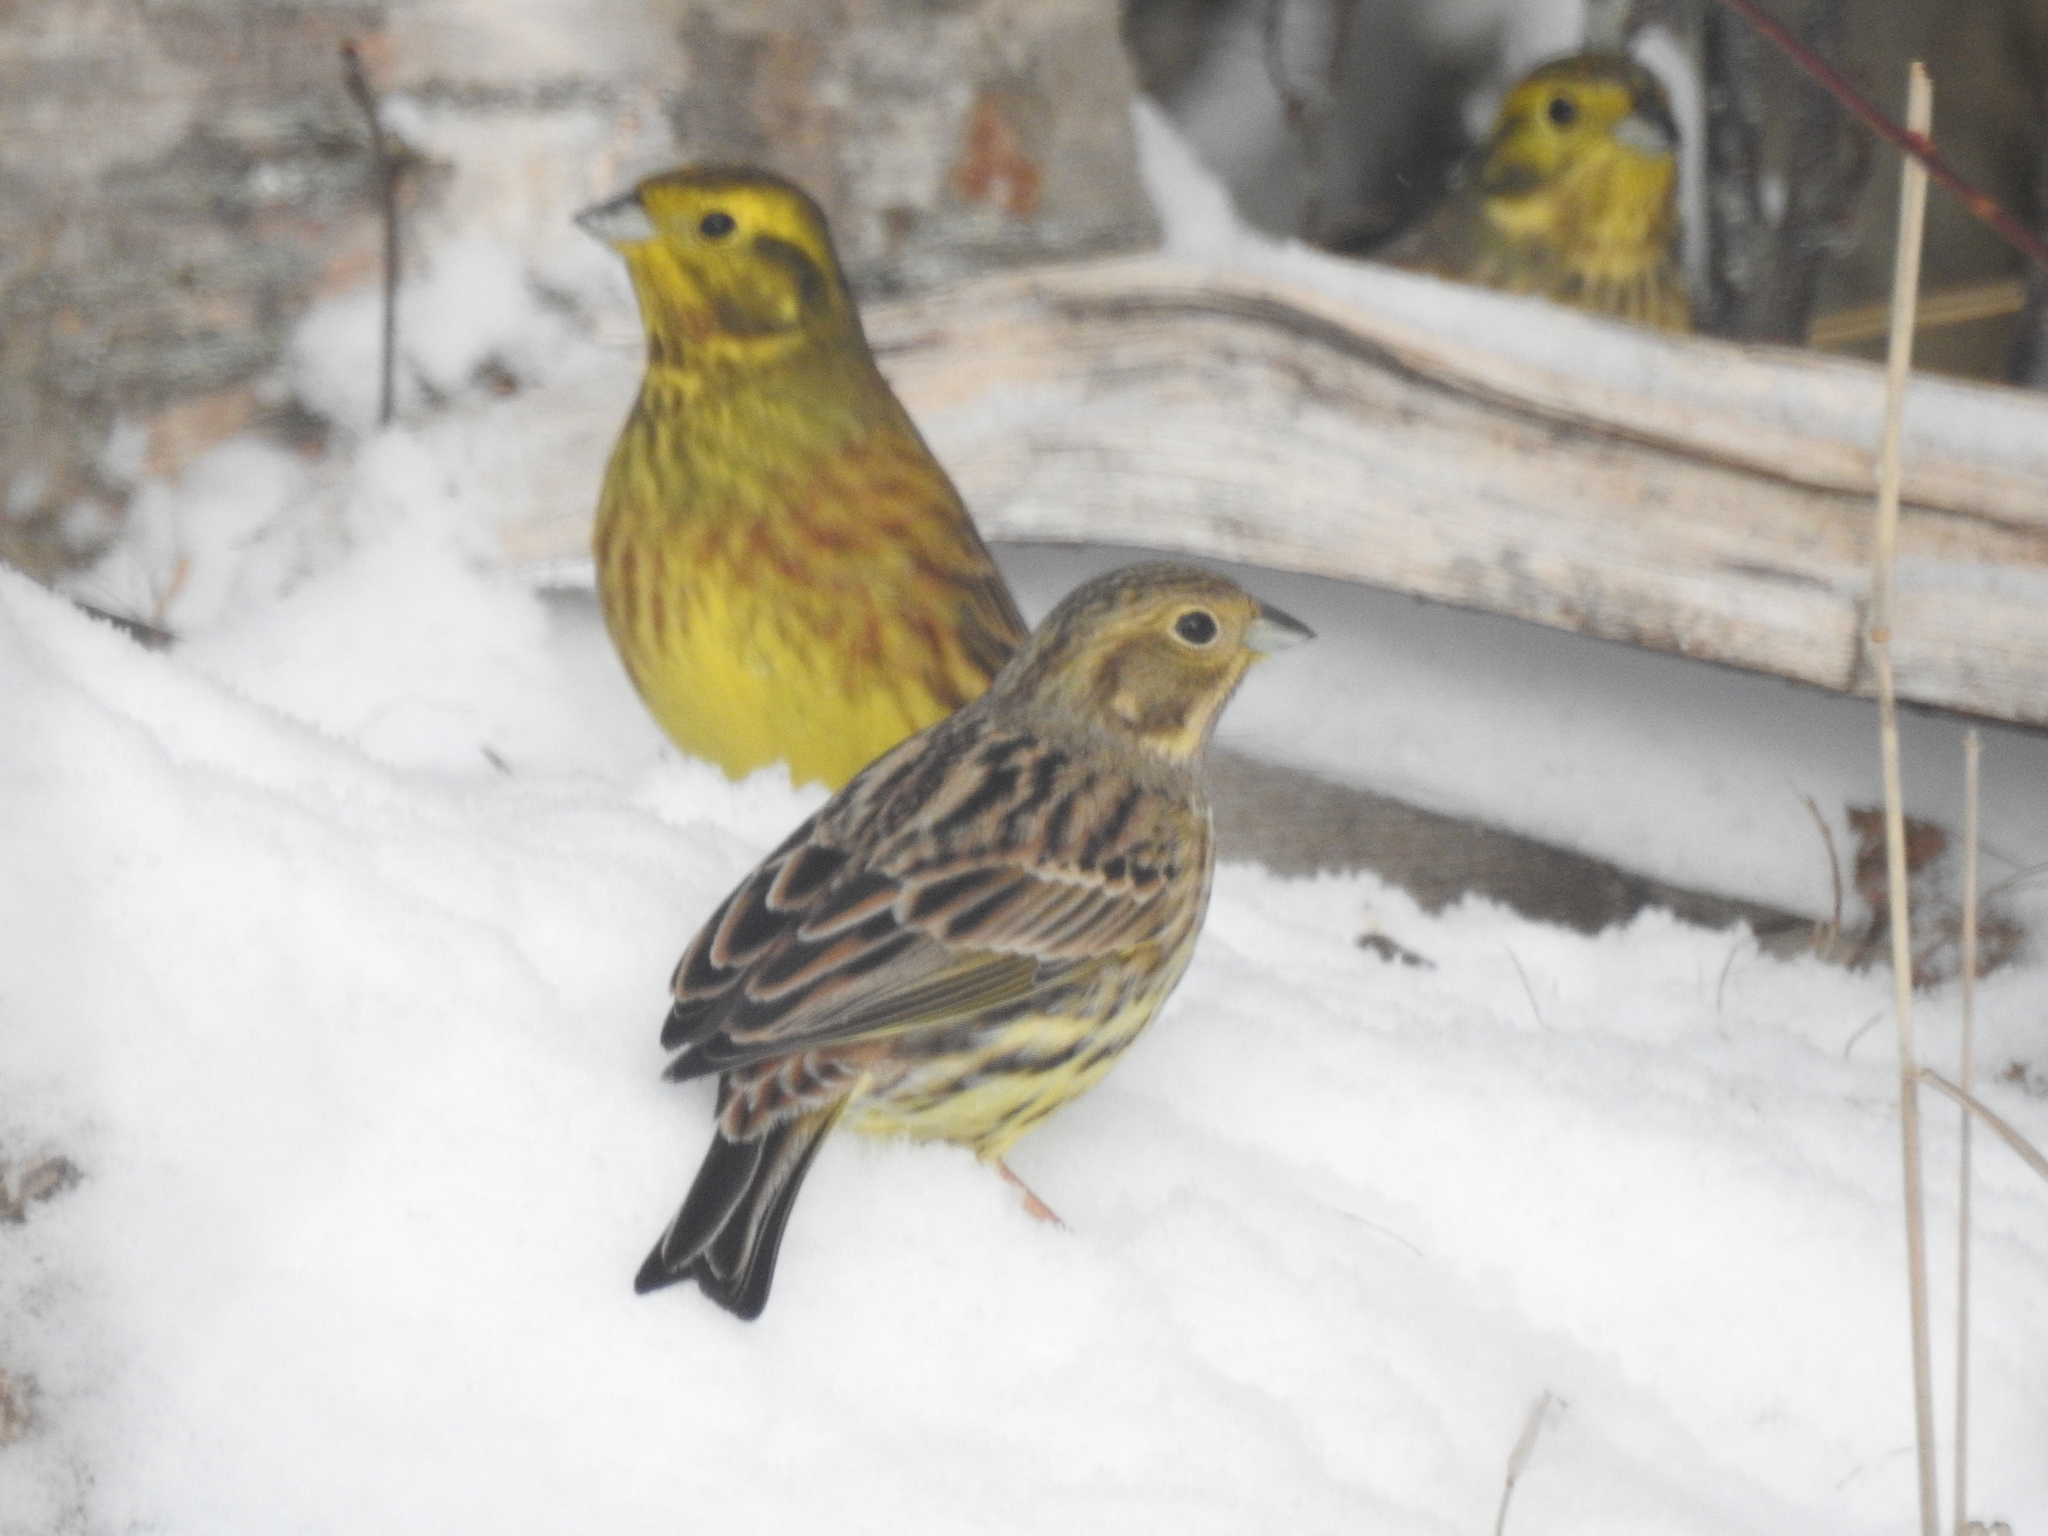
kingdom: Animalia
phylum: Chordata
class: Aves
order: Passeriformes
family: Emberizidae
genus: Emberiza
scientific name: Emberiza citrinella
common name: Yellowhammer
